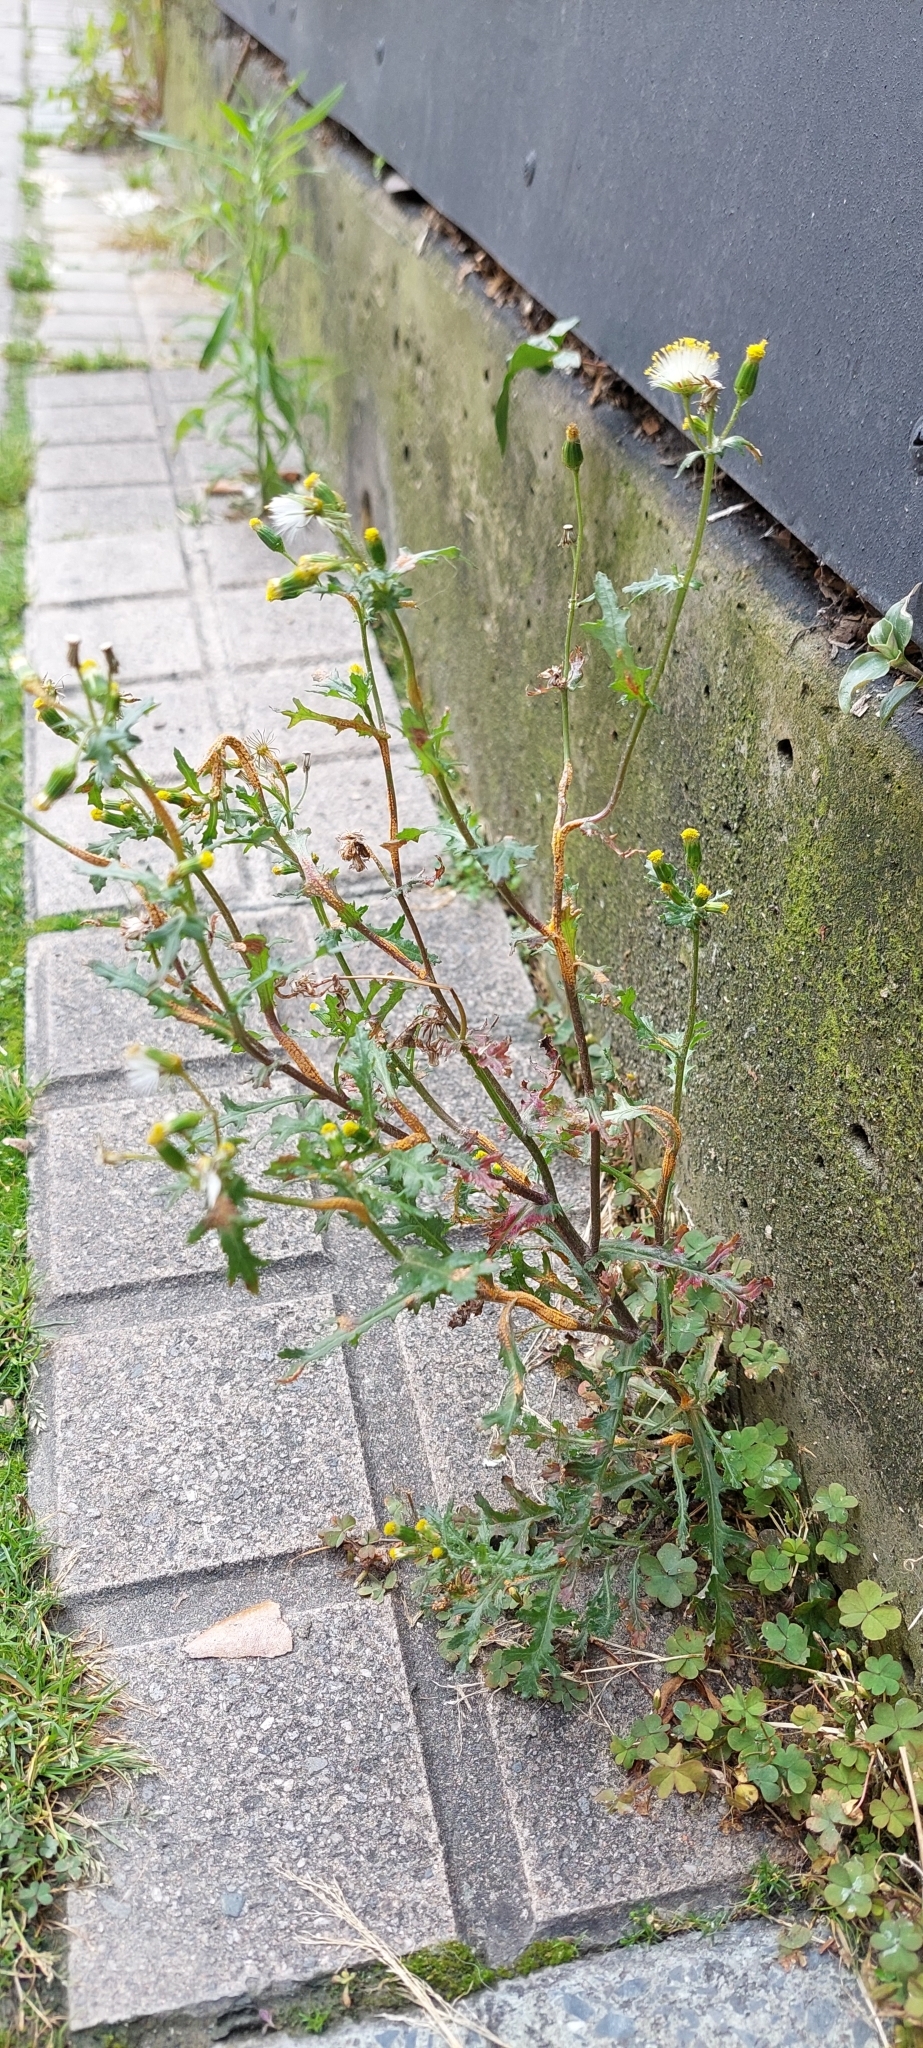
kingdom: Plantae
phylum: Tracheophyta
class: Magnoliopsida
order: Asterales
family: Asteraceae
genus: Senecio
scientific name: Senecio vulgaris
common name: Old-man-in-the-spring
